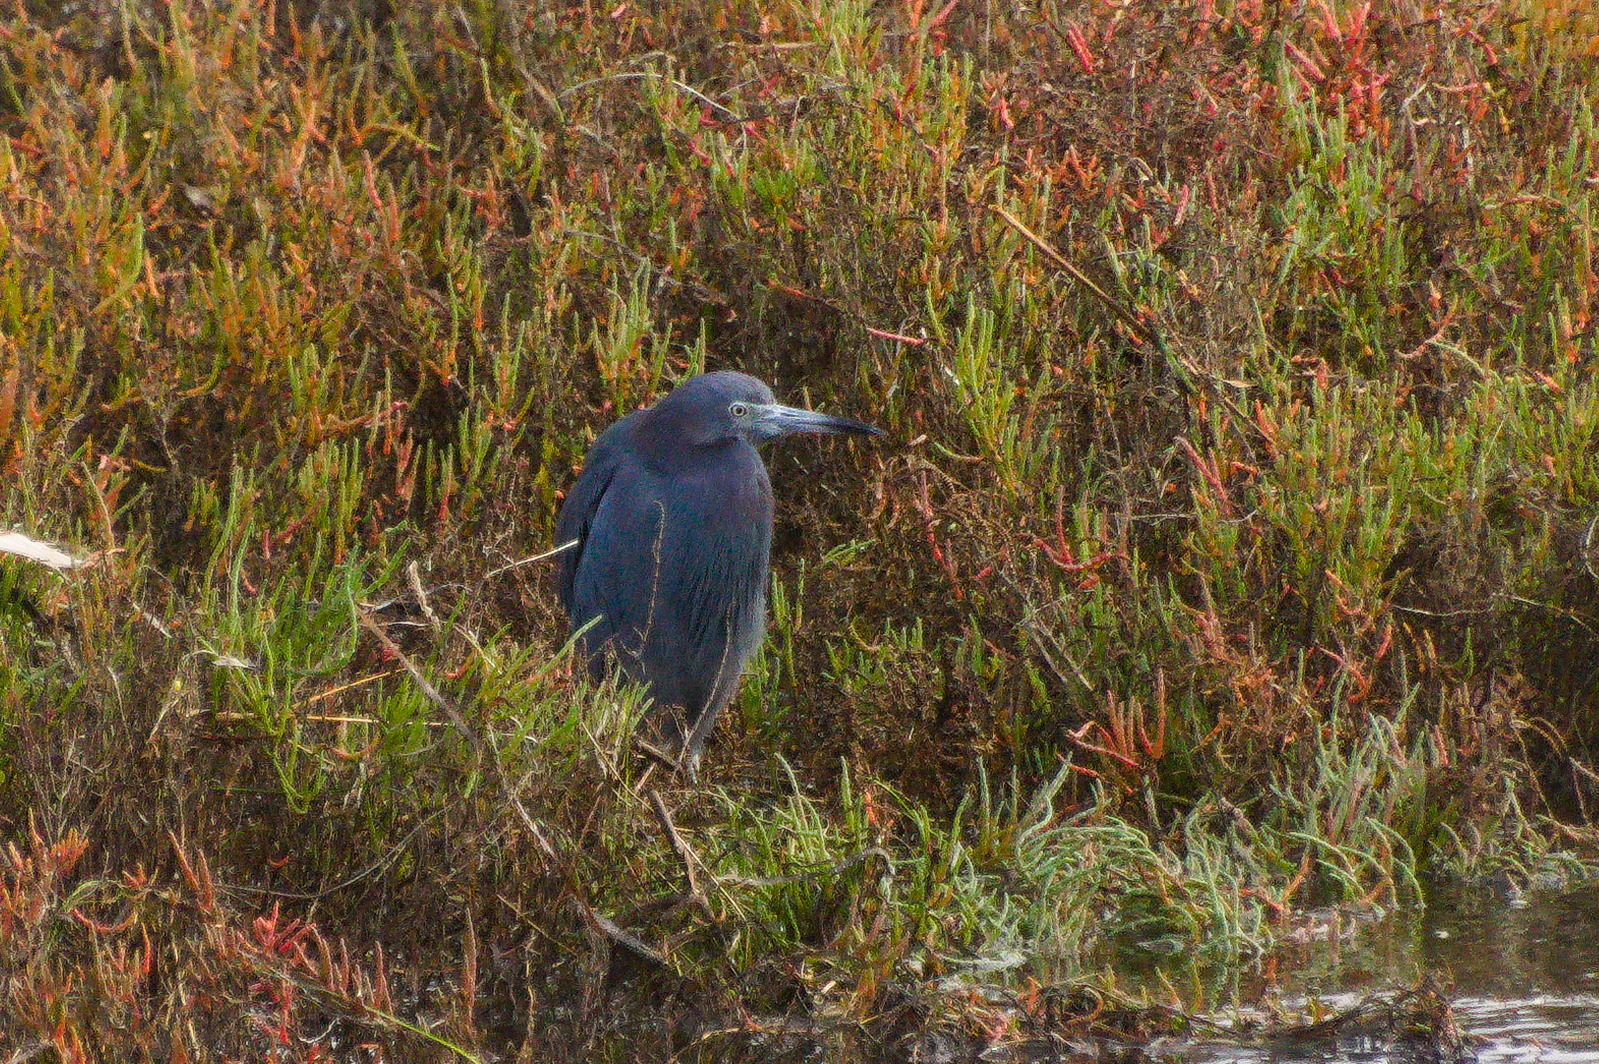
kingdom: Animalia
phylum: Chordata
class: Aves
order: Pelecaniformes
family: Ardeidae
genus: Egretta
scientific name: Egretta caerulea
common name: Little blue heron
